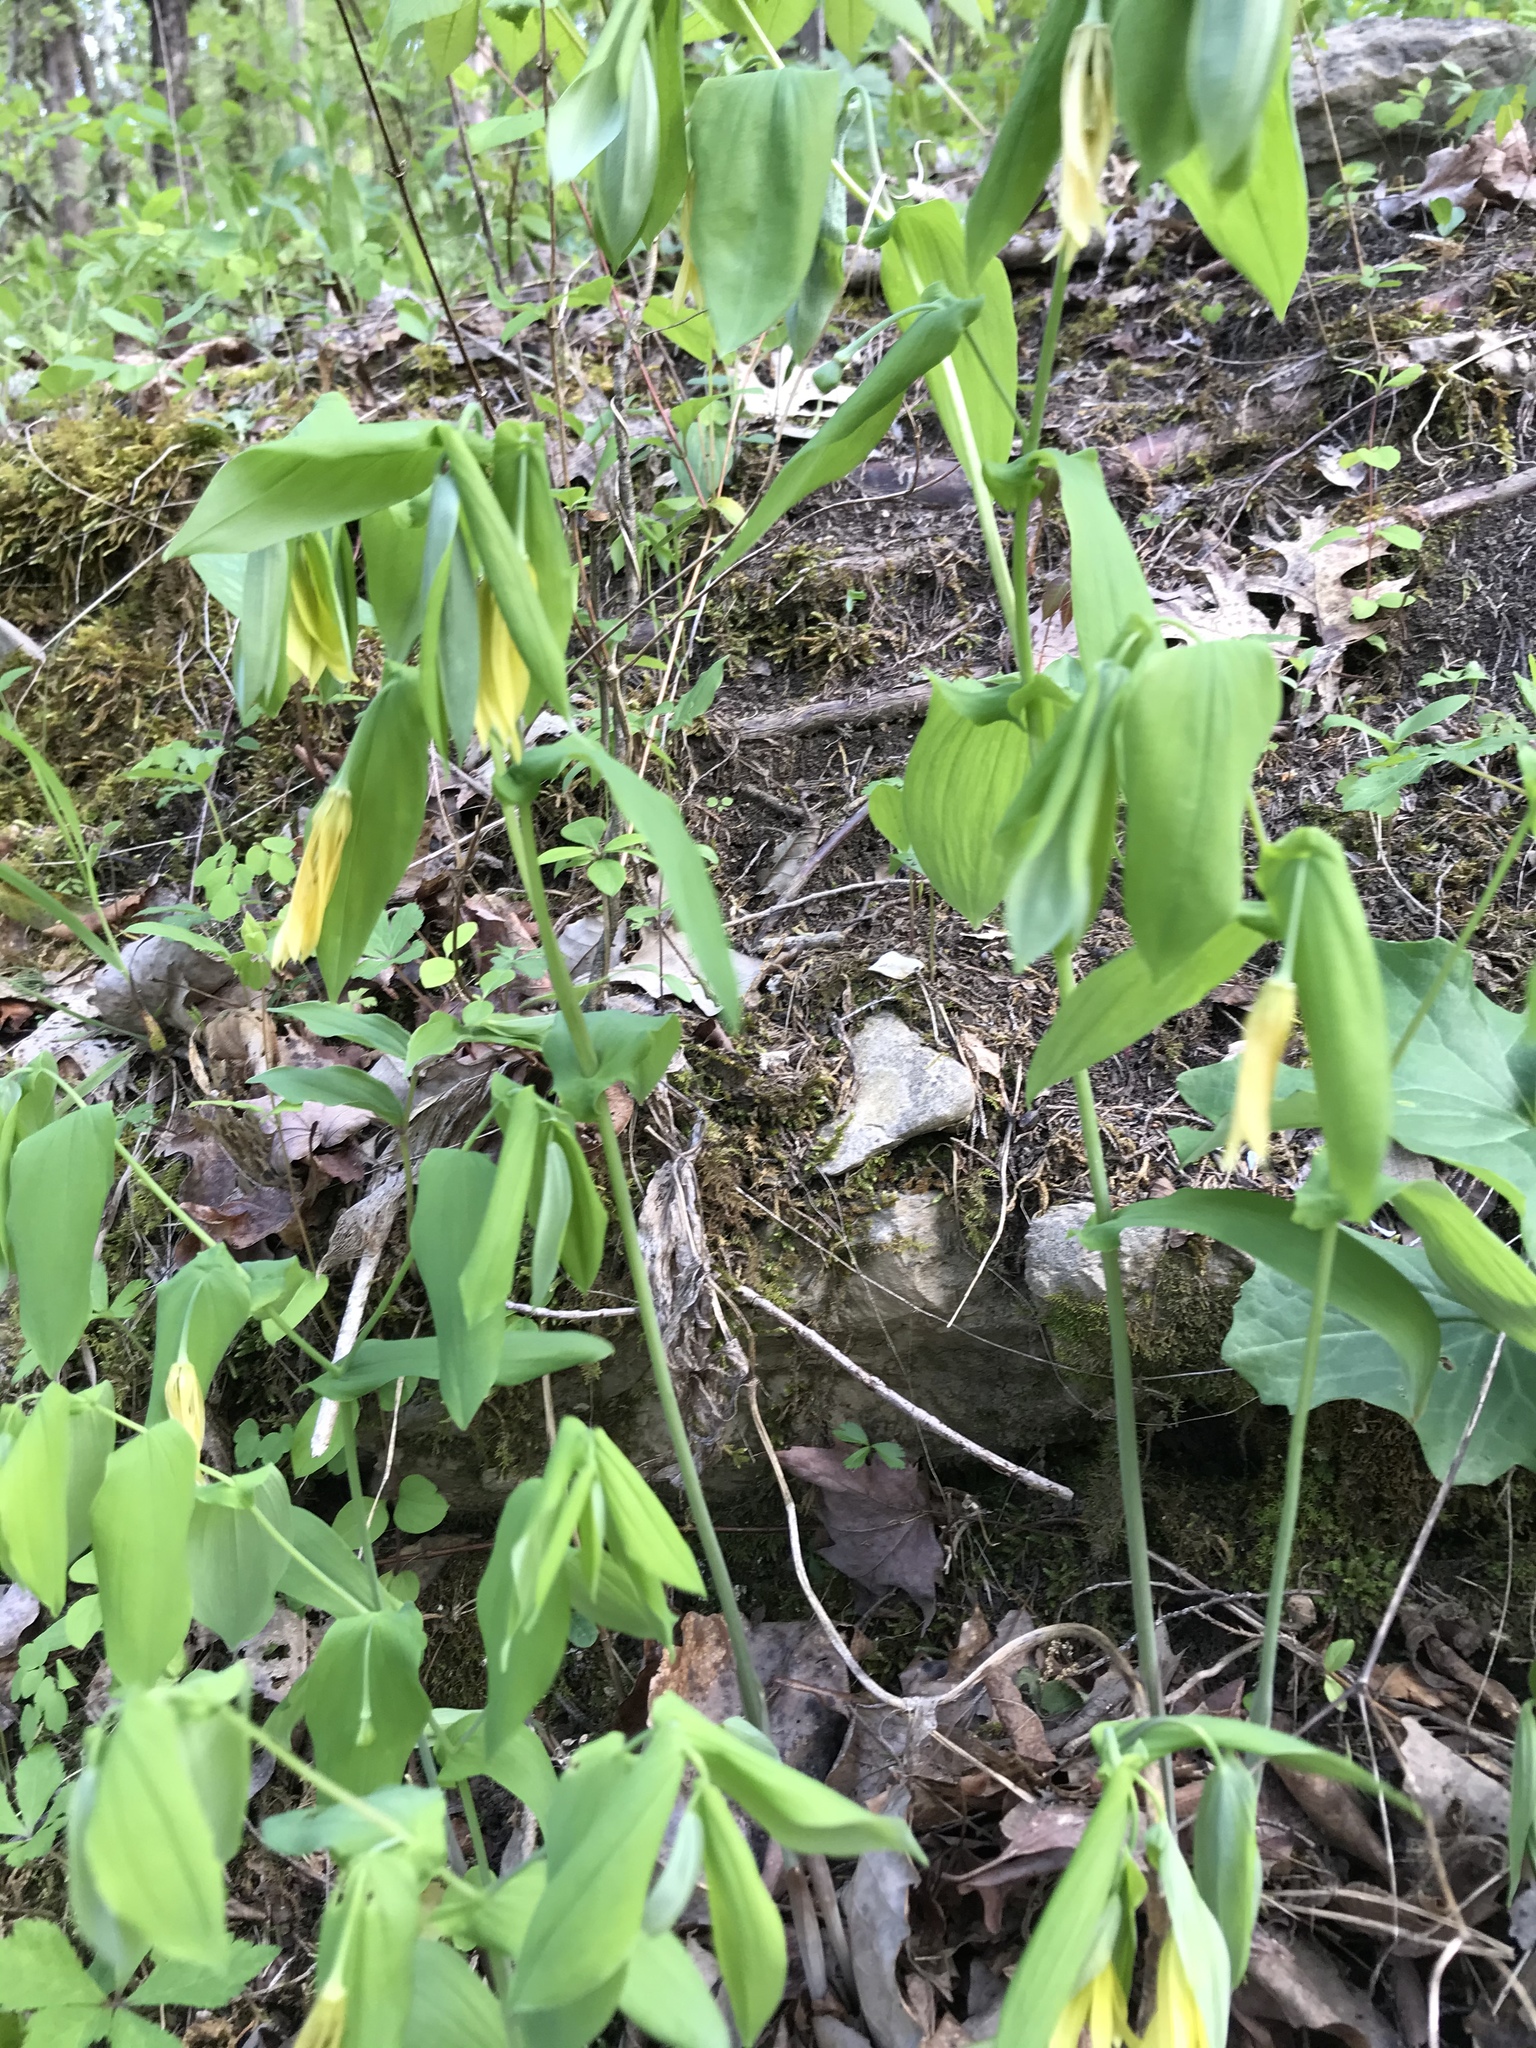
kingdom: Plantae
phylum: Tracheophyta
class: Liliopsida
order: Liliales
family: Colchicaceae
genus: Uvularia
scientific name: Uvularia grandiflora
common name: Bellwort
